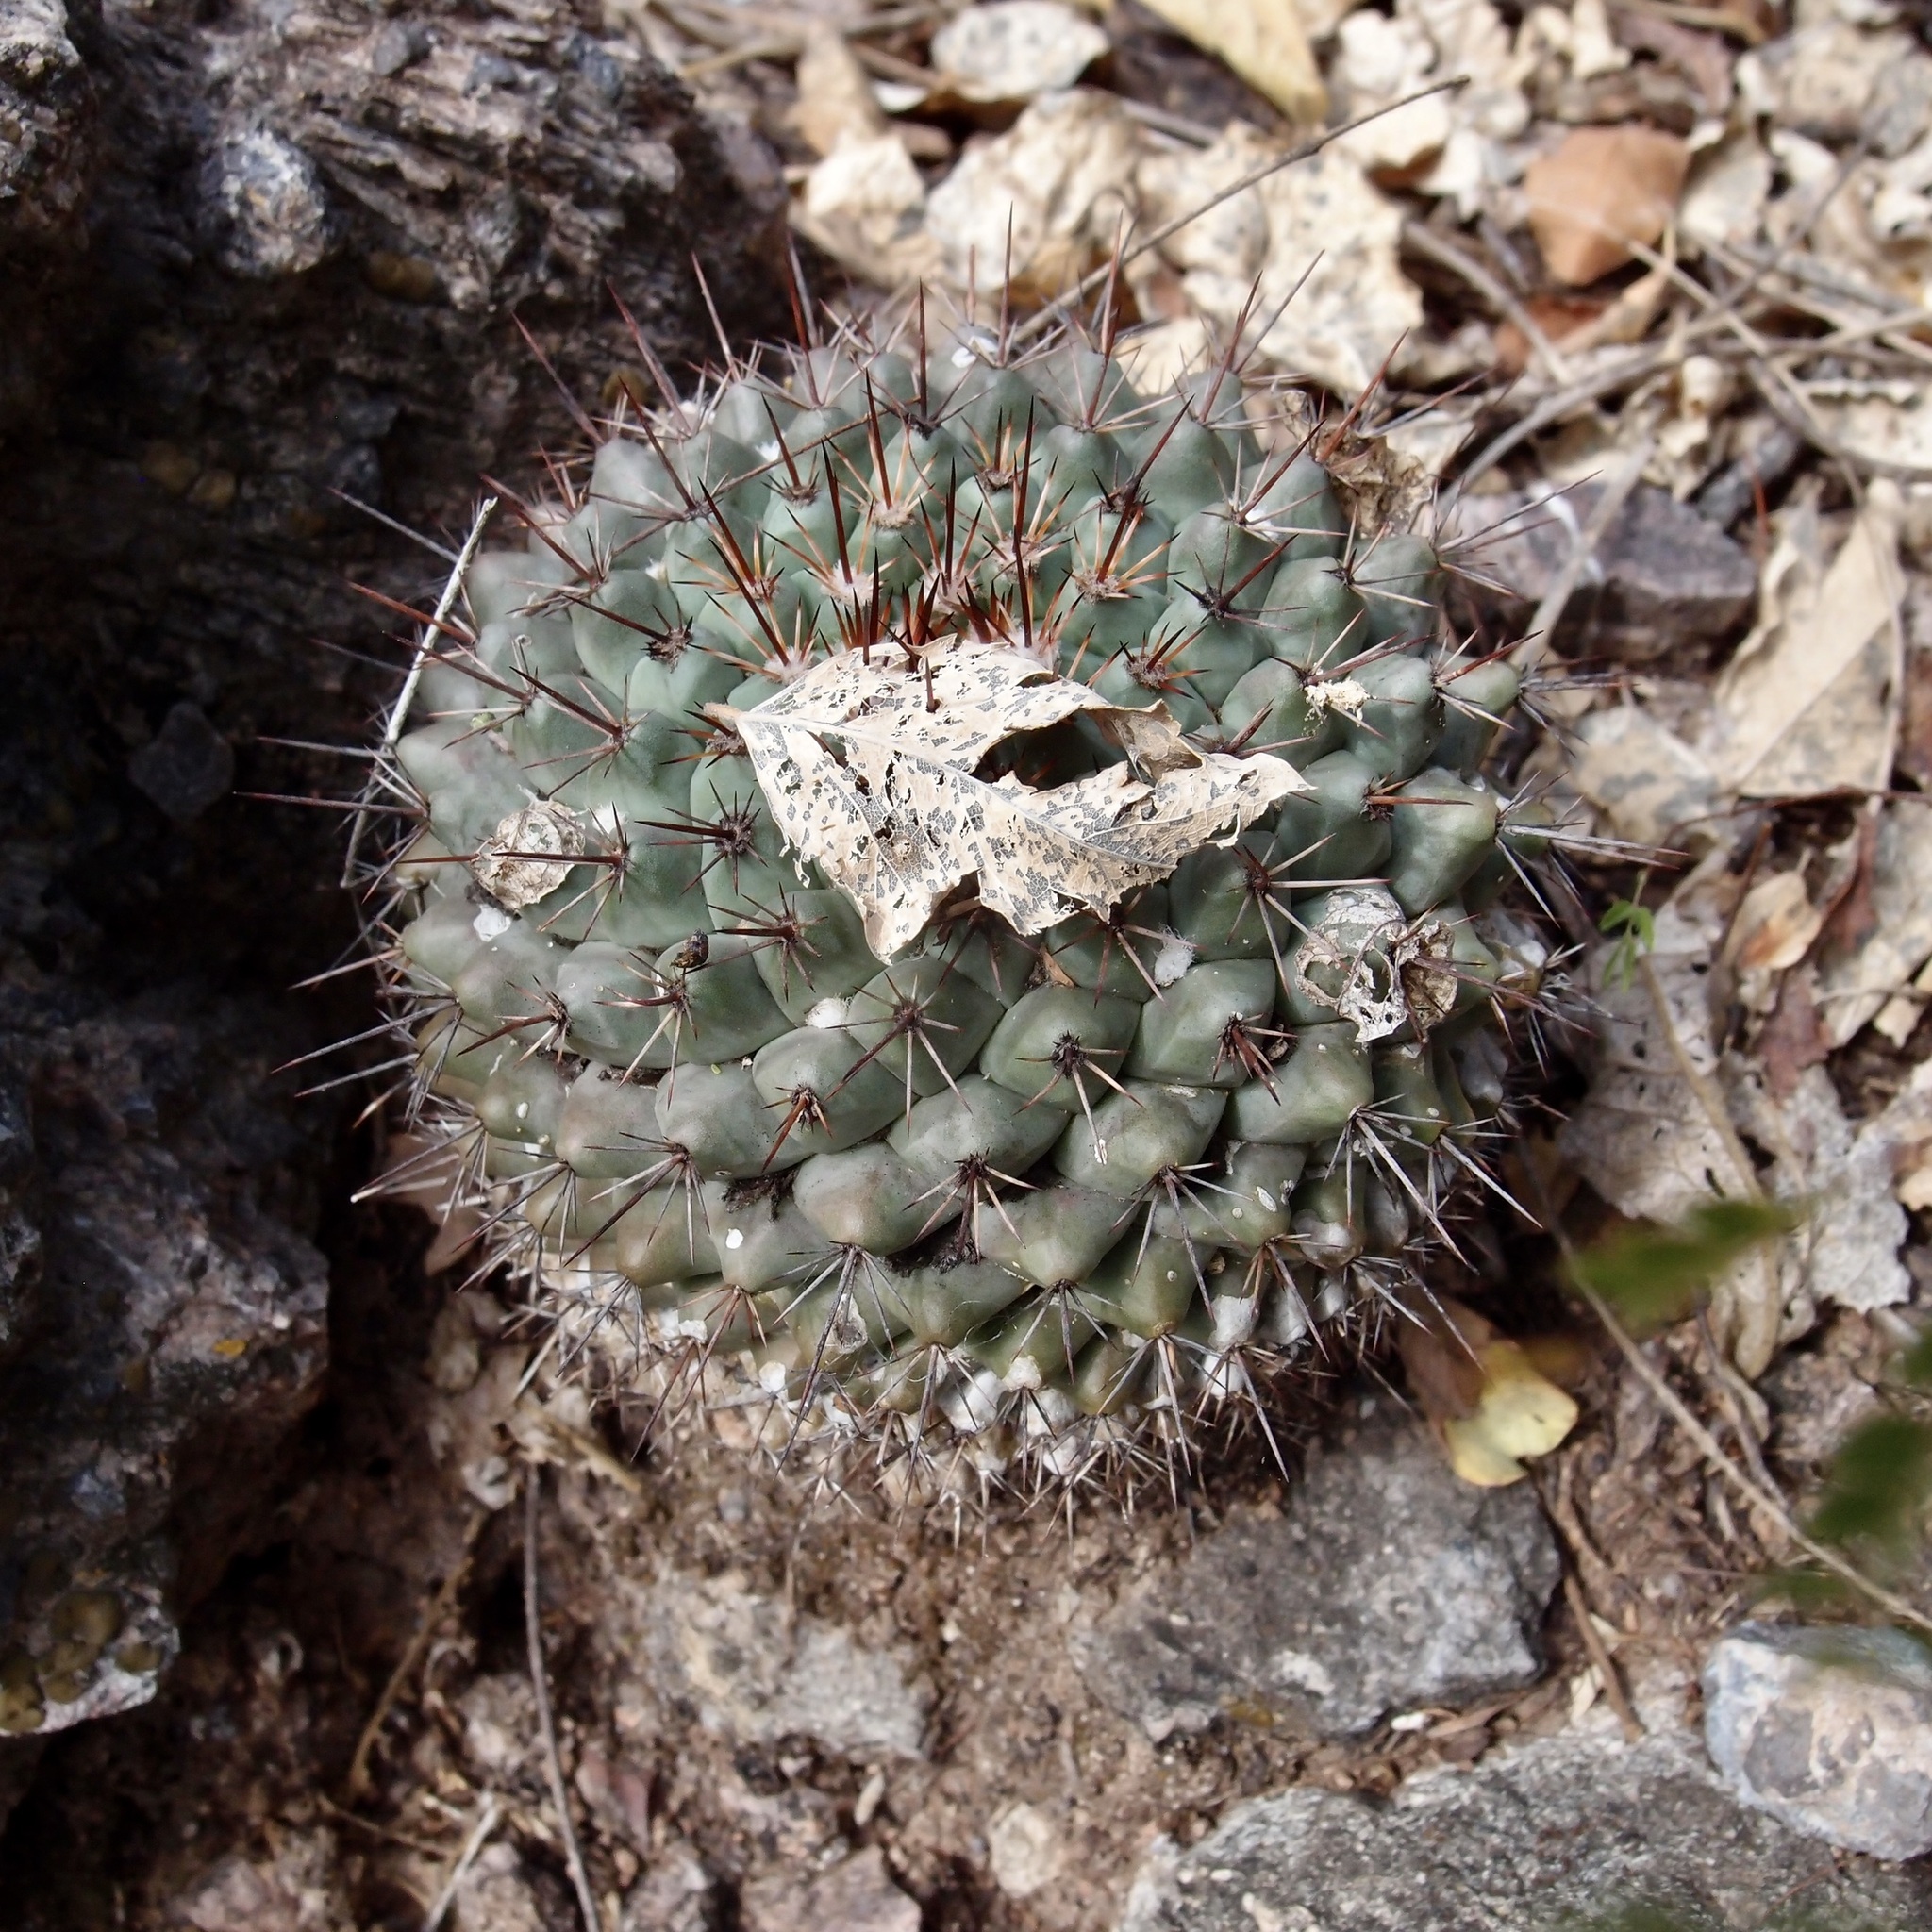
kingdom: Plantae
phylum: Tracheophyta
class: Magnoliopsida
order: Caryophyllales
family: Cactaceae
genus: Mammillaria
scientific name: Mammillaria sonorensis
